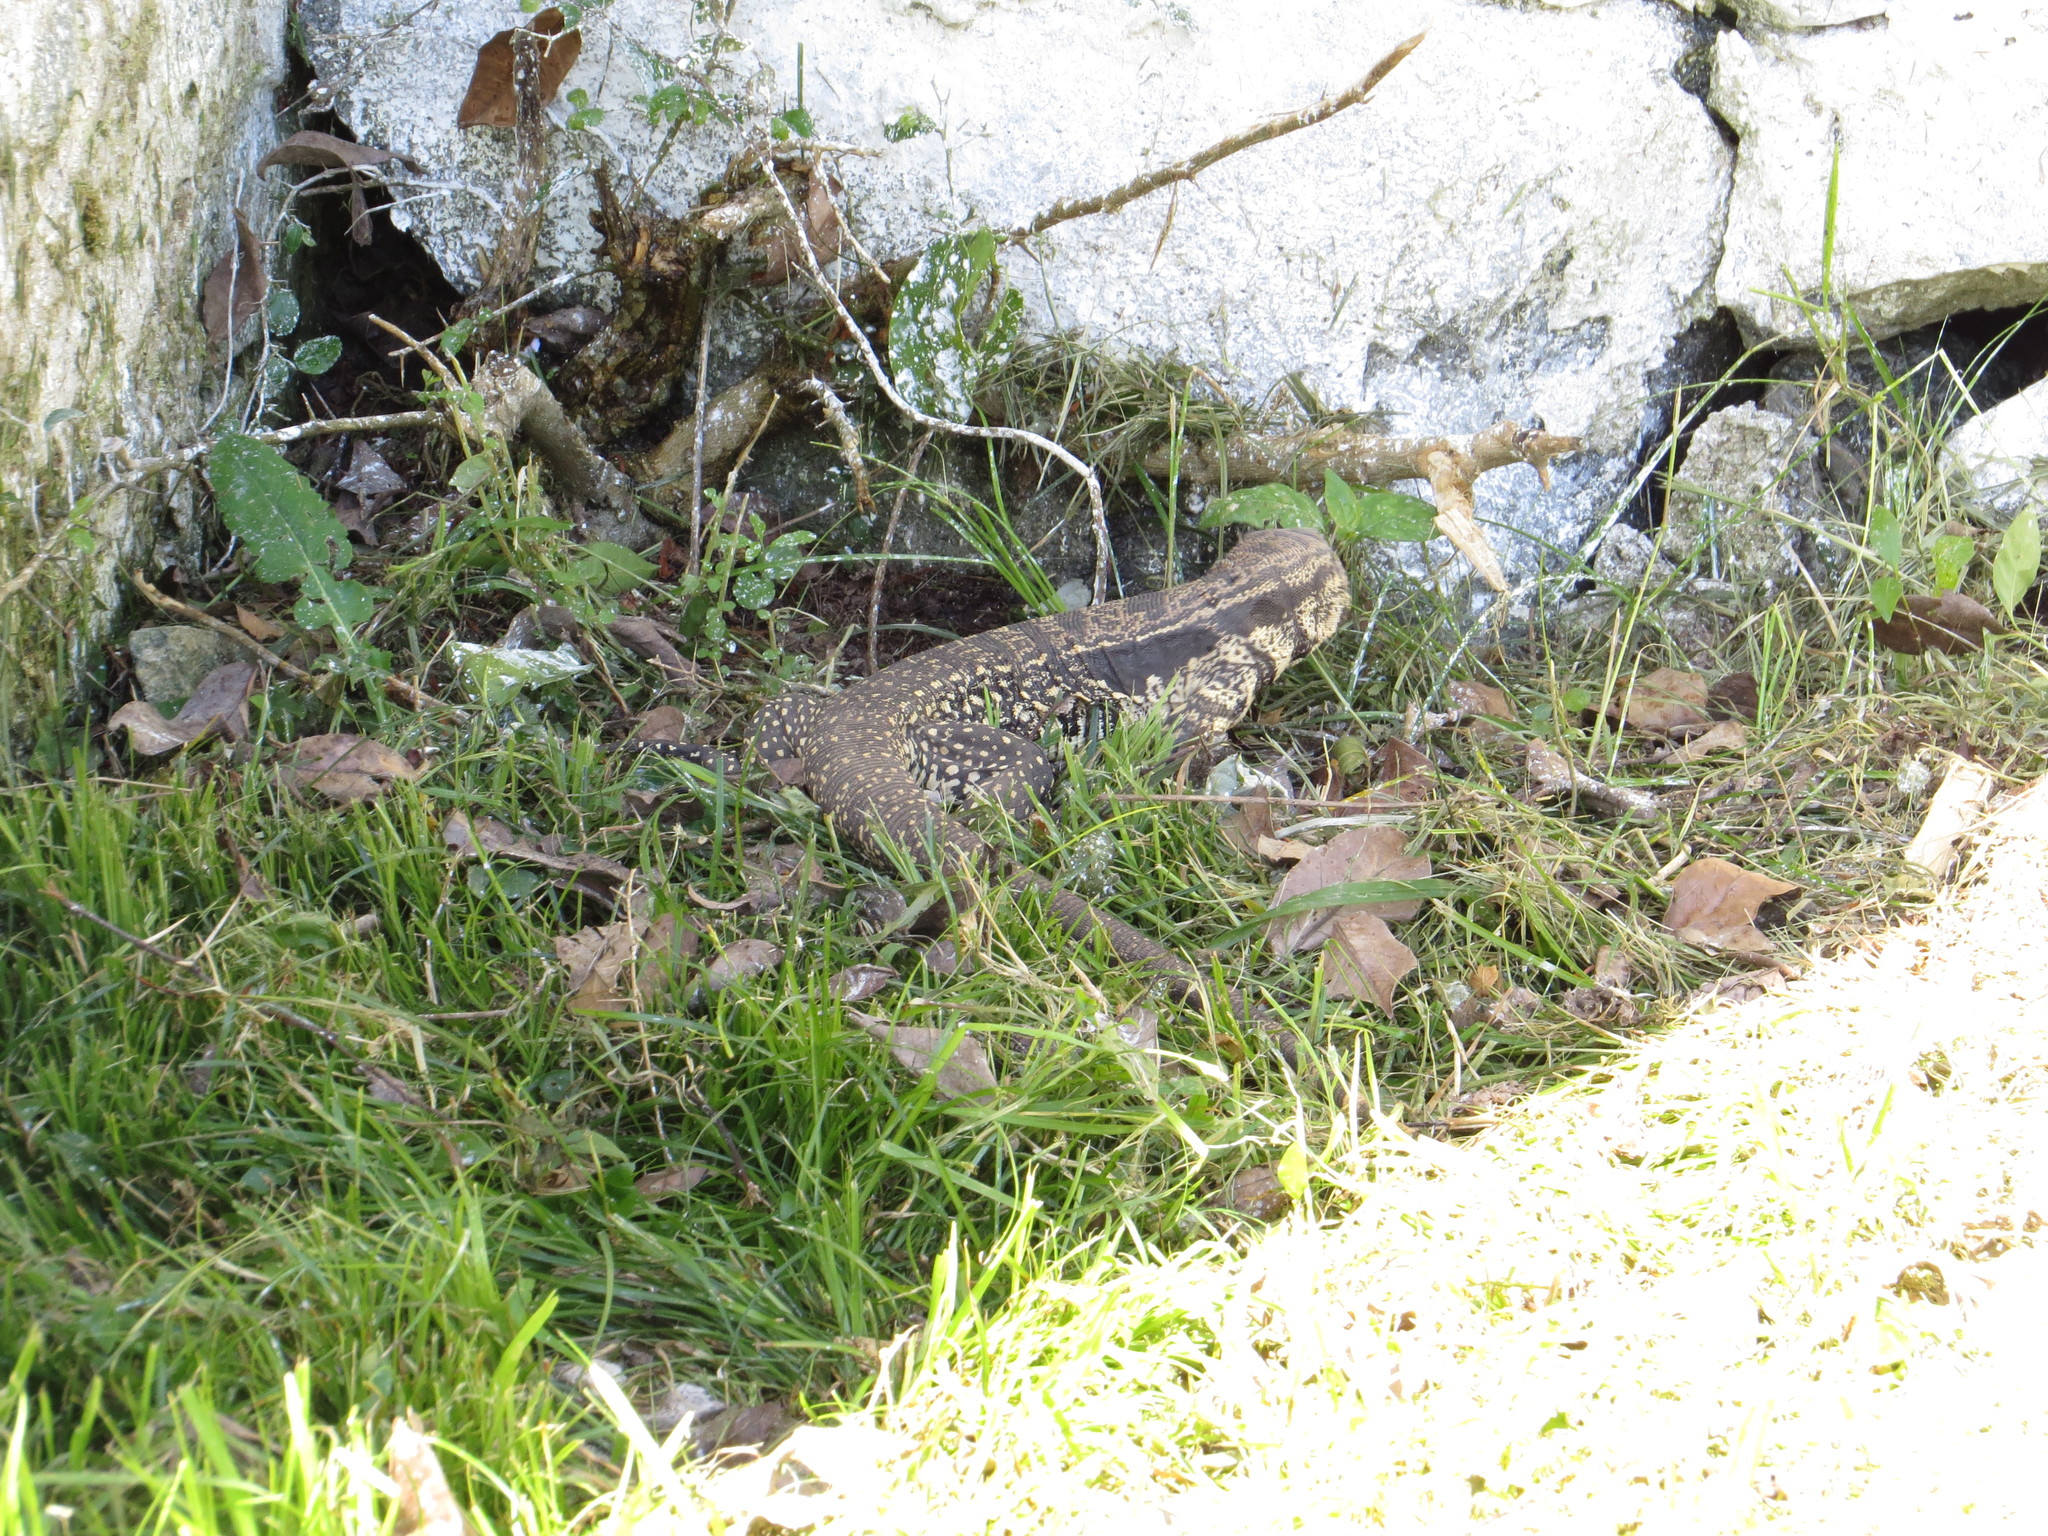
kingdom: Animalia
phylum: Chordata
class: Squamata
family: Teiidae
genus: Salvator
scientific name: Salvator merianae
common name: Argentine black and white tegu
